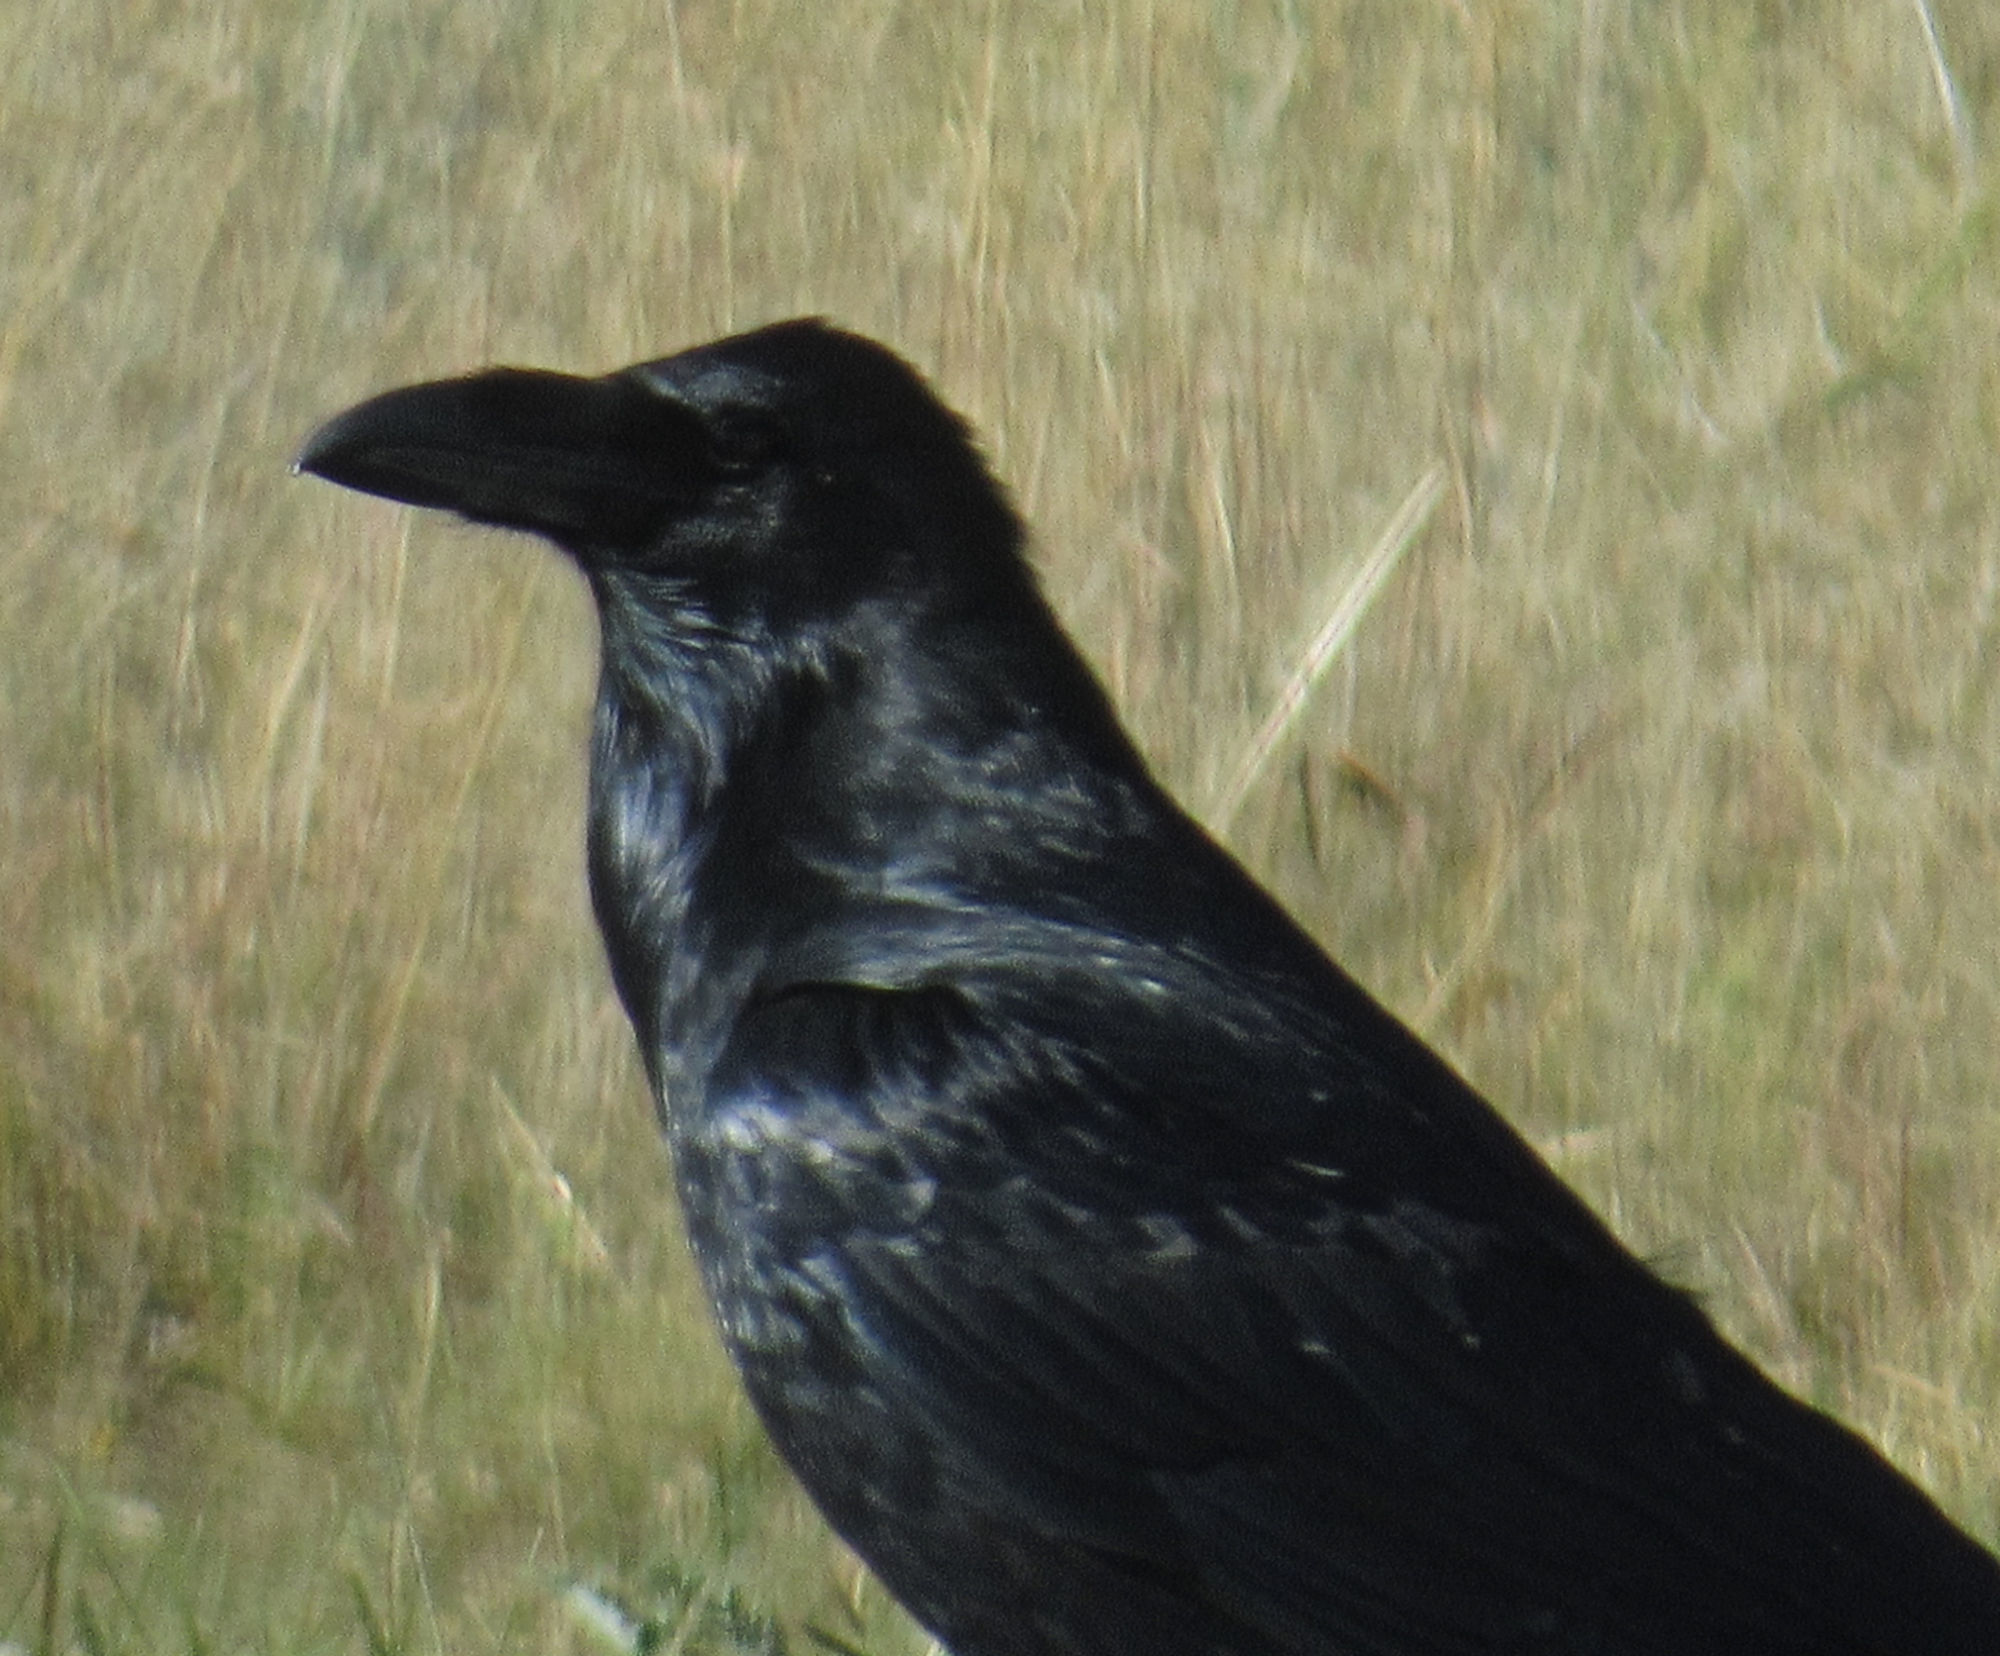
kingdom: Animalia
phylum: Chordata
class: Aves
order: Passeriformes
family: Corvidae
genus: Corvus
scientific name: Corvus corax
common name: Common raven
